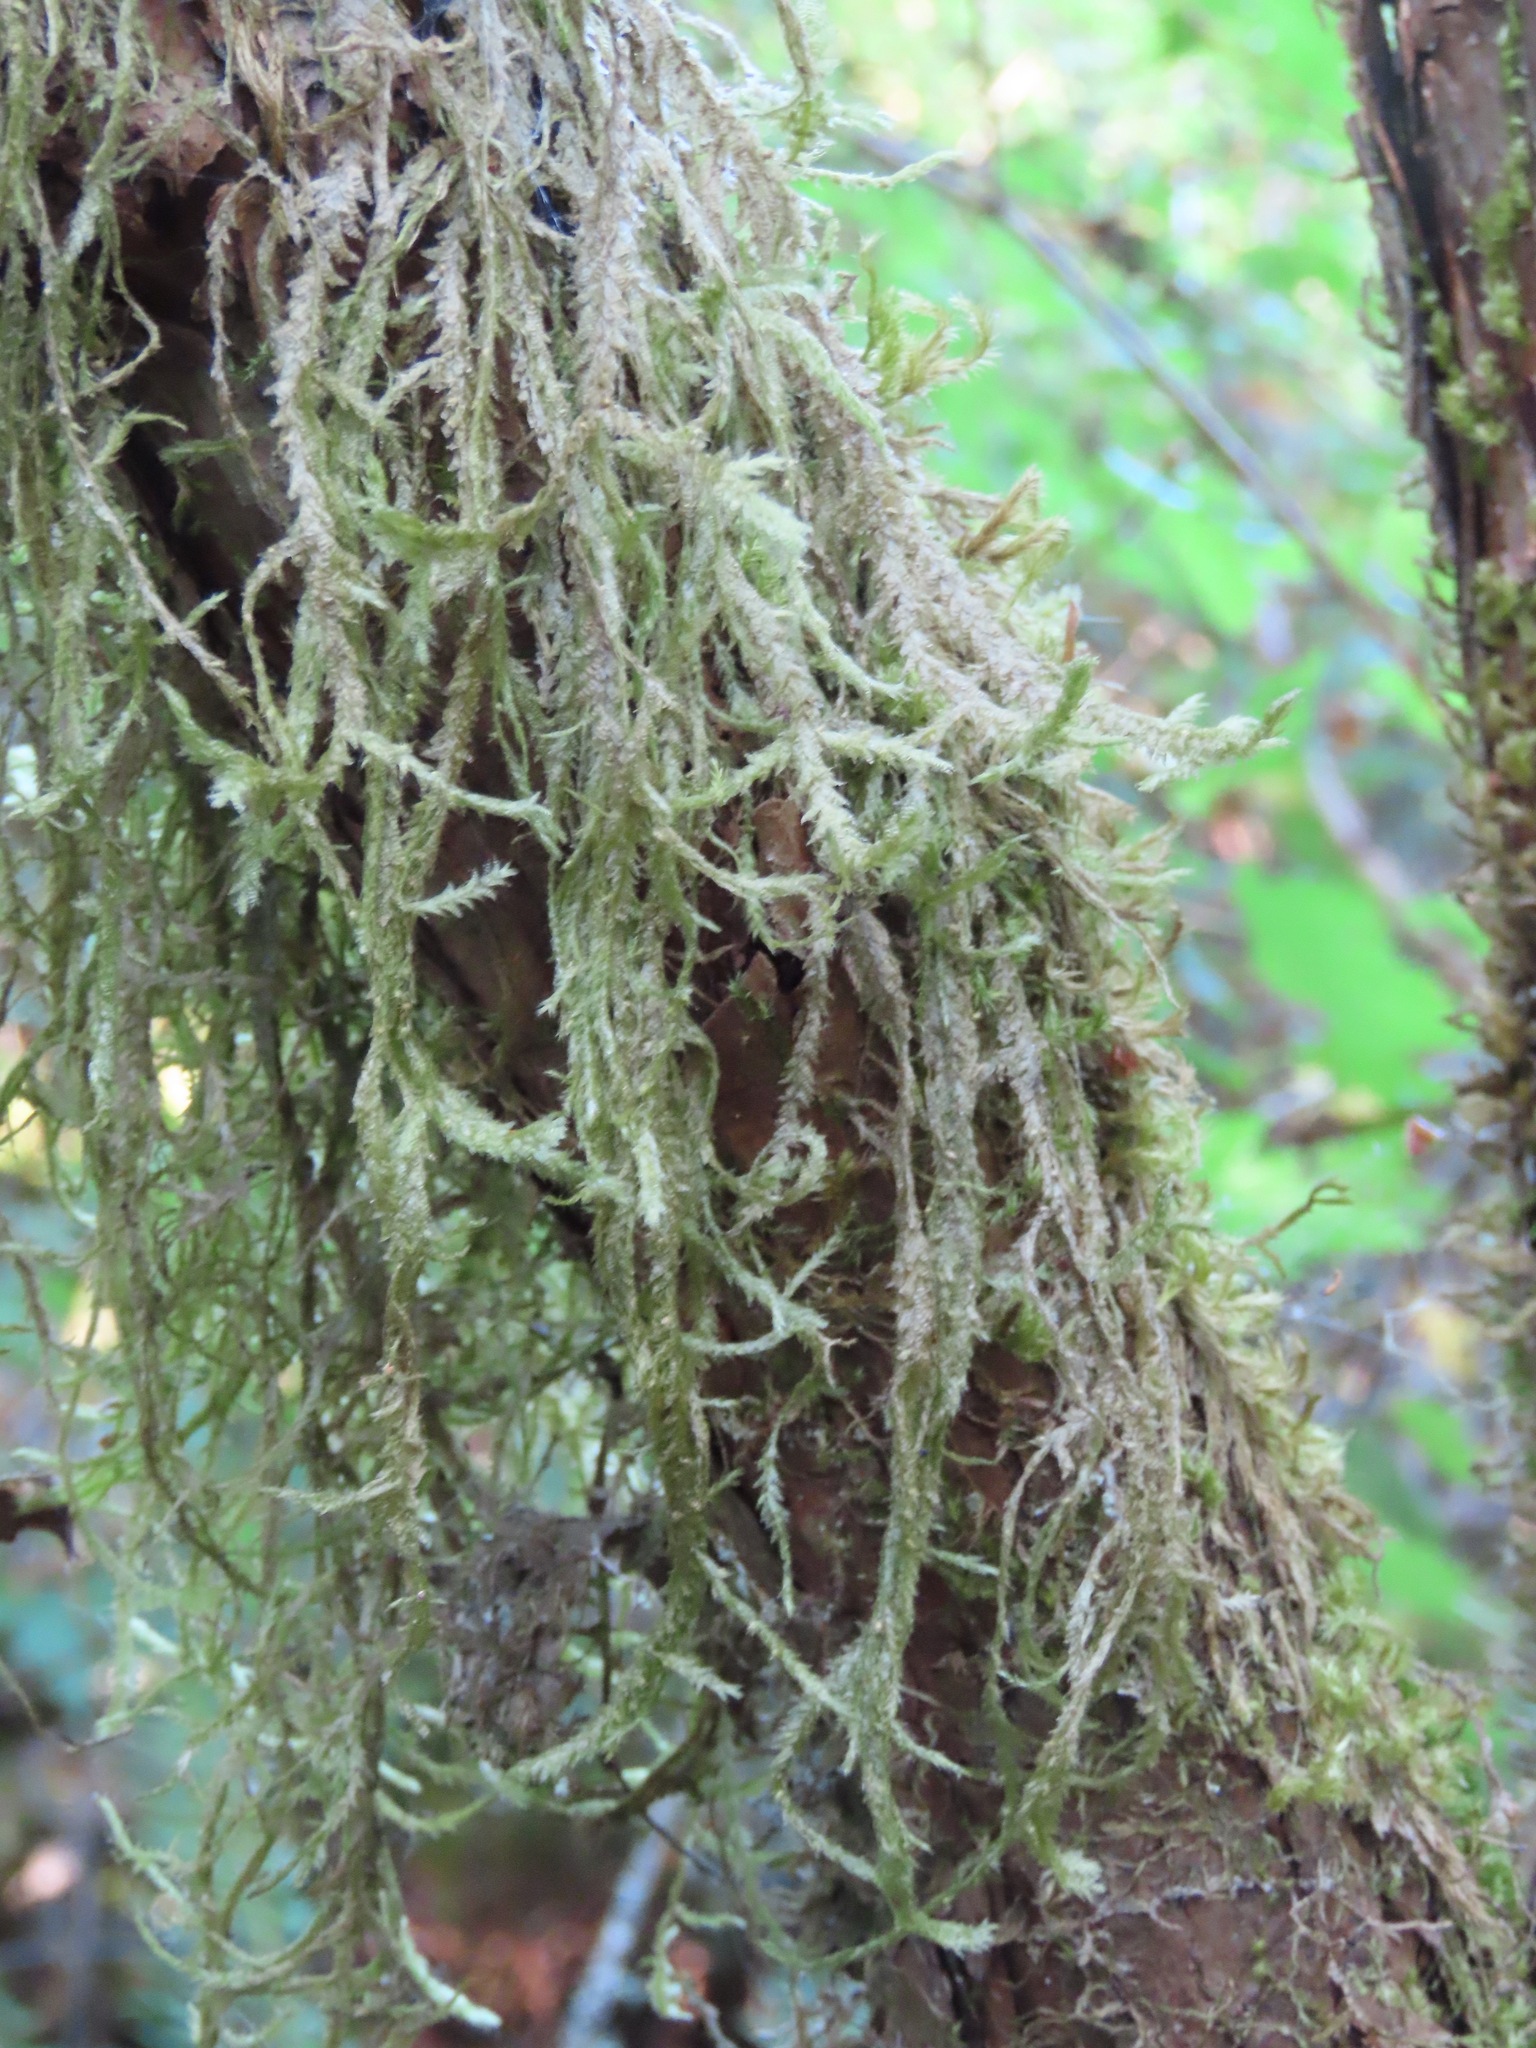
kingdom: Plantae
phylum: Bryophyta
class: Bryopsida
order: Hypnales
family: Neckeraceae
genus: Neckera
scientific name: Neckera douglasii
